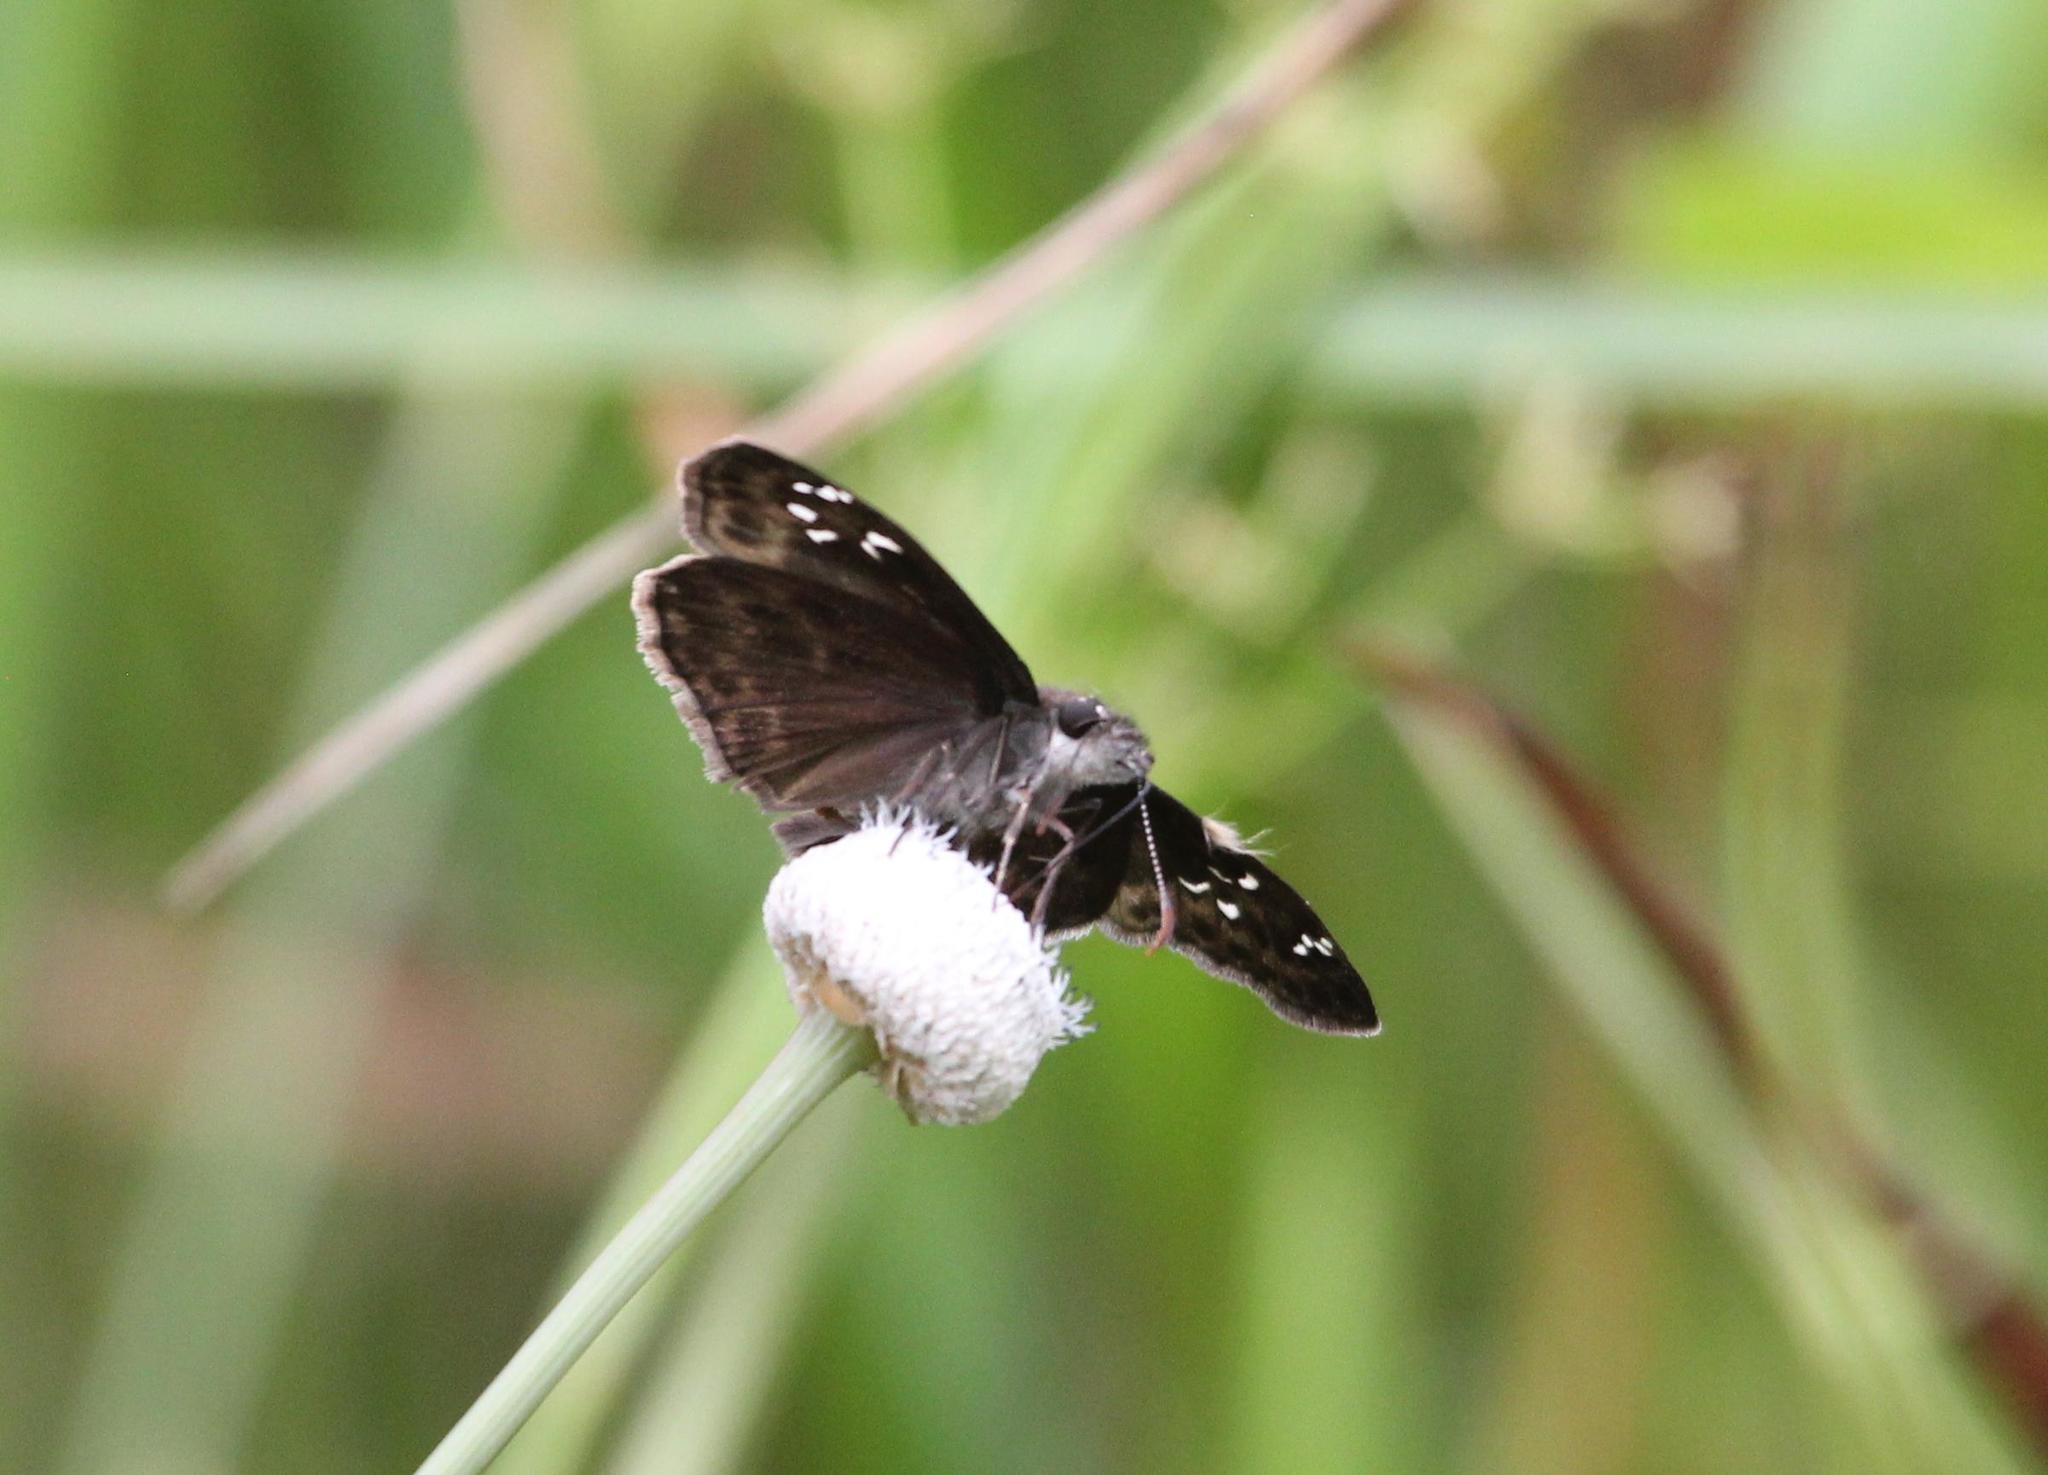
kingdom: Animalia
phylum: Arthropoda
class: Insecta
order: Lepidoptera
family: Hesperiidae
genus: Erynnis
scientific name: Erynnis horatius
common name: Horace's duskywing
